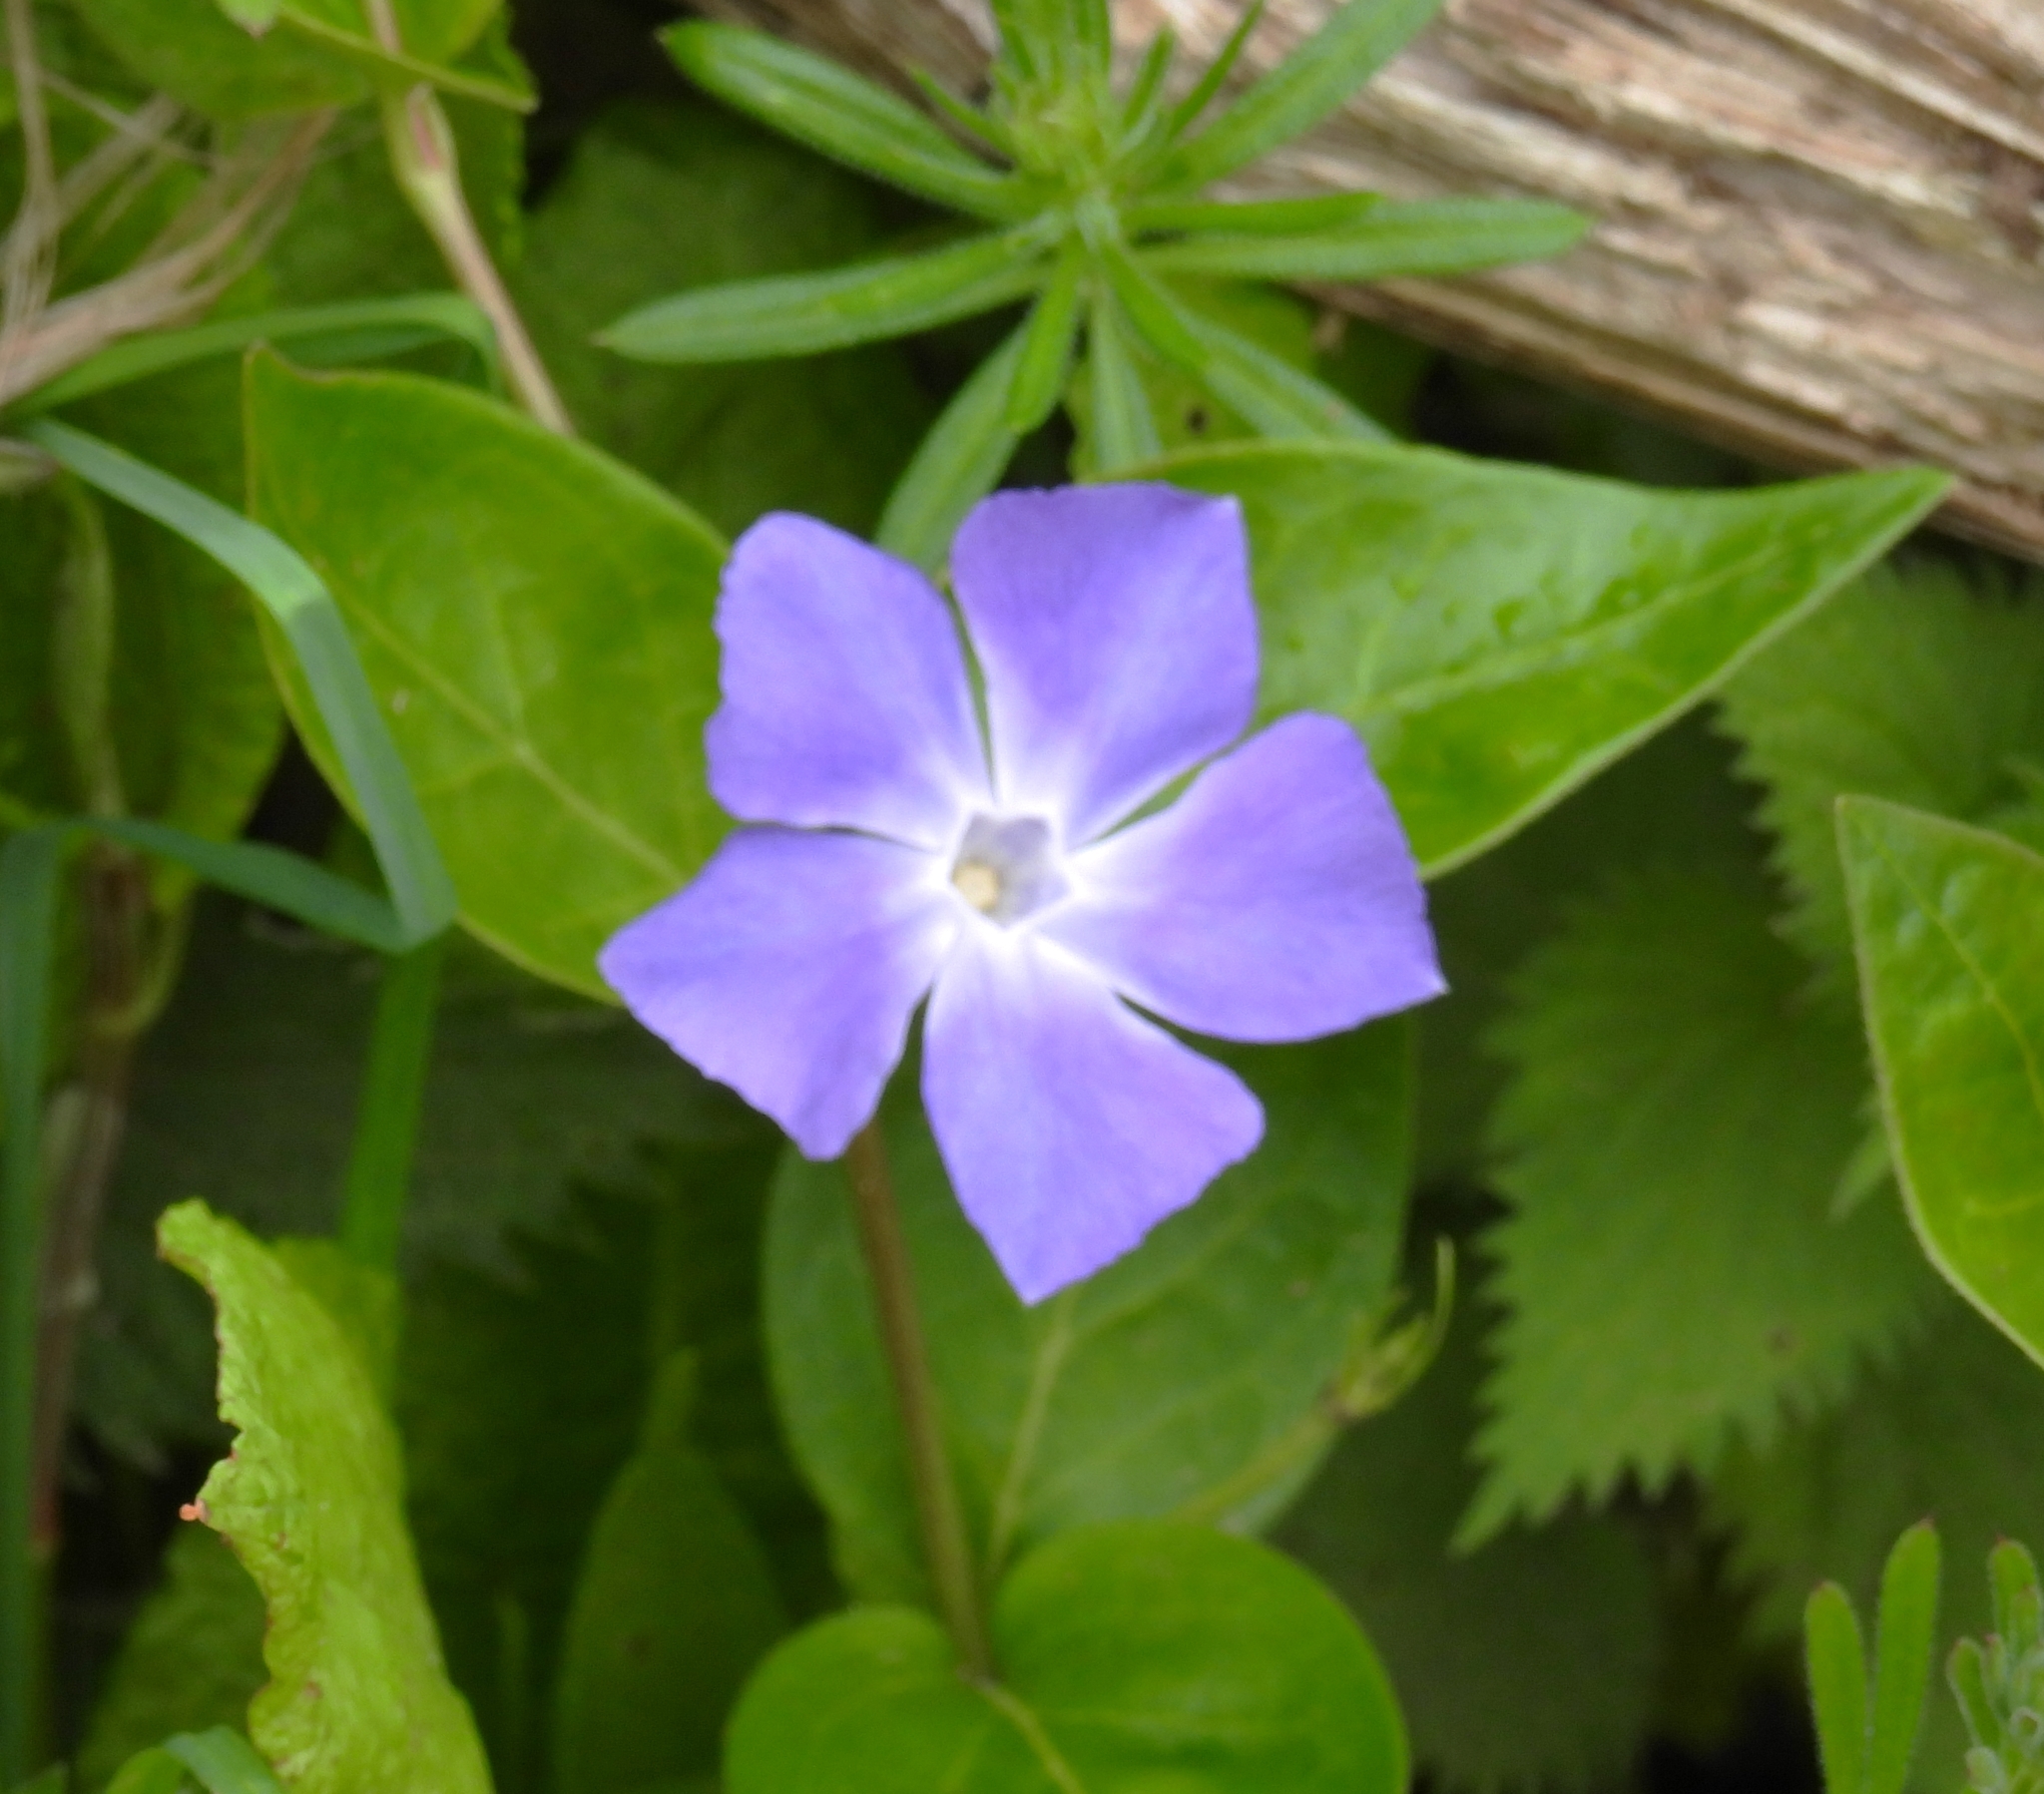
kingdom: Plantae
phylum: Tracheophyta
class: Magnoliopsida
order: Boraginales
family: Boraginaceae
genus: Pentaglottis
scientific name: Pentaglottis sempervirens
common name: Green alkanet
